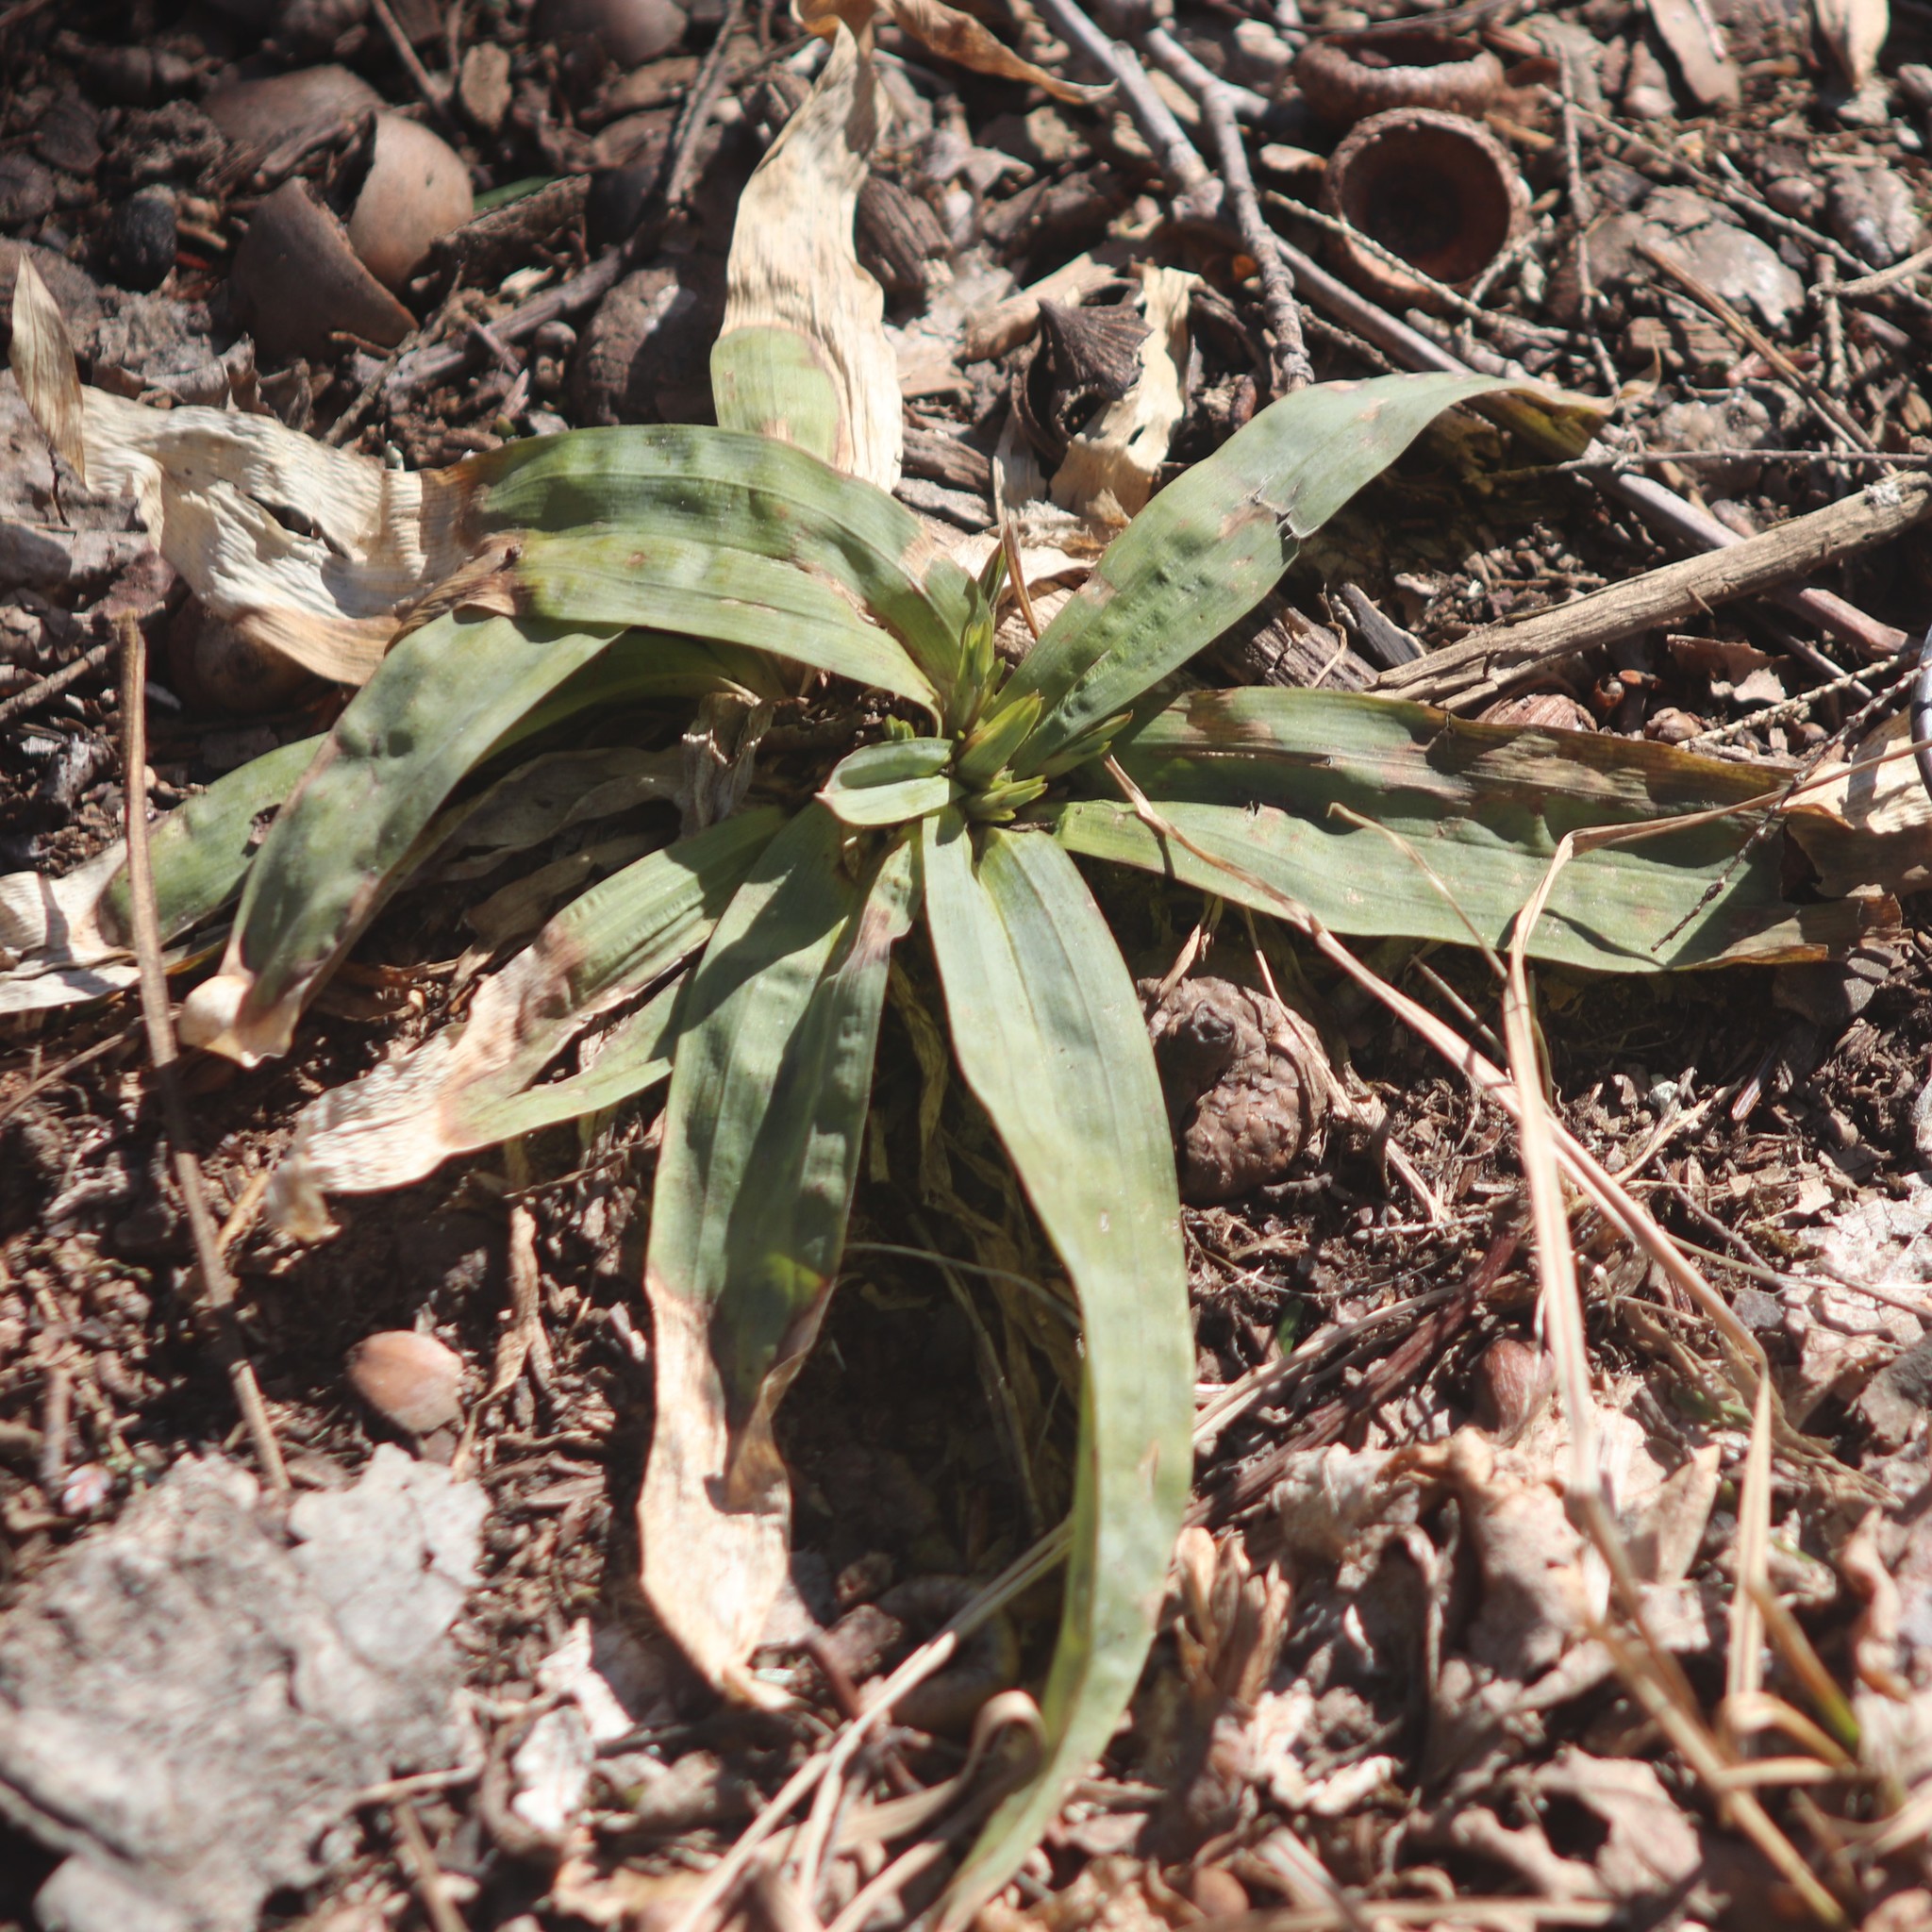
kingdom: Plantae
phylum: Tracheophyta
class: Liliopsida
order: Poales
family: Cyperaceae
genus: Carex
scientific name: Carex platyphylla
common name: Broad-leaved sedge
